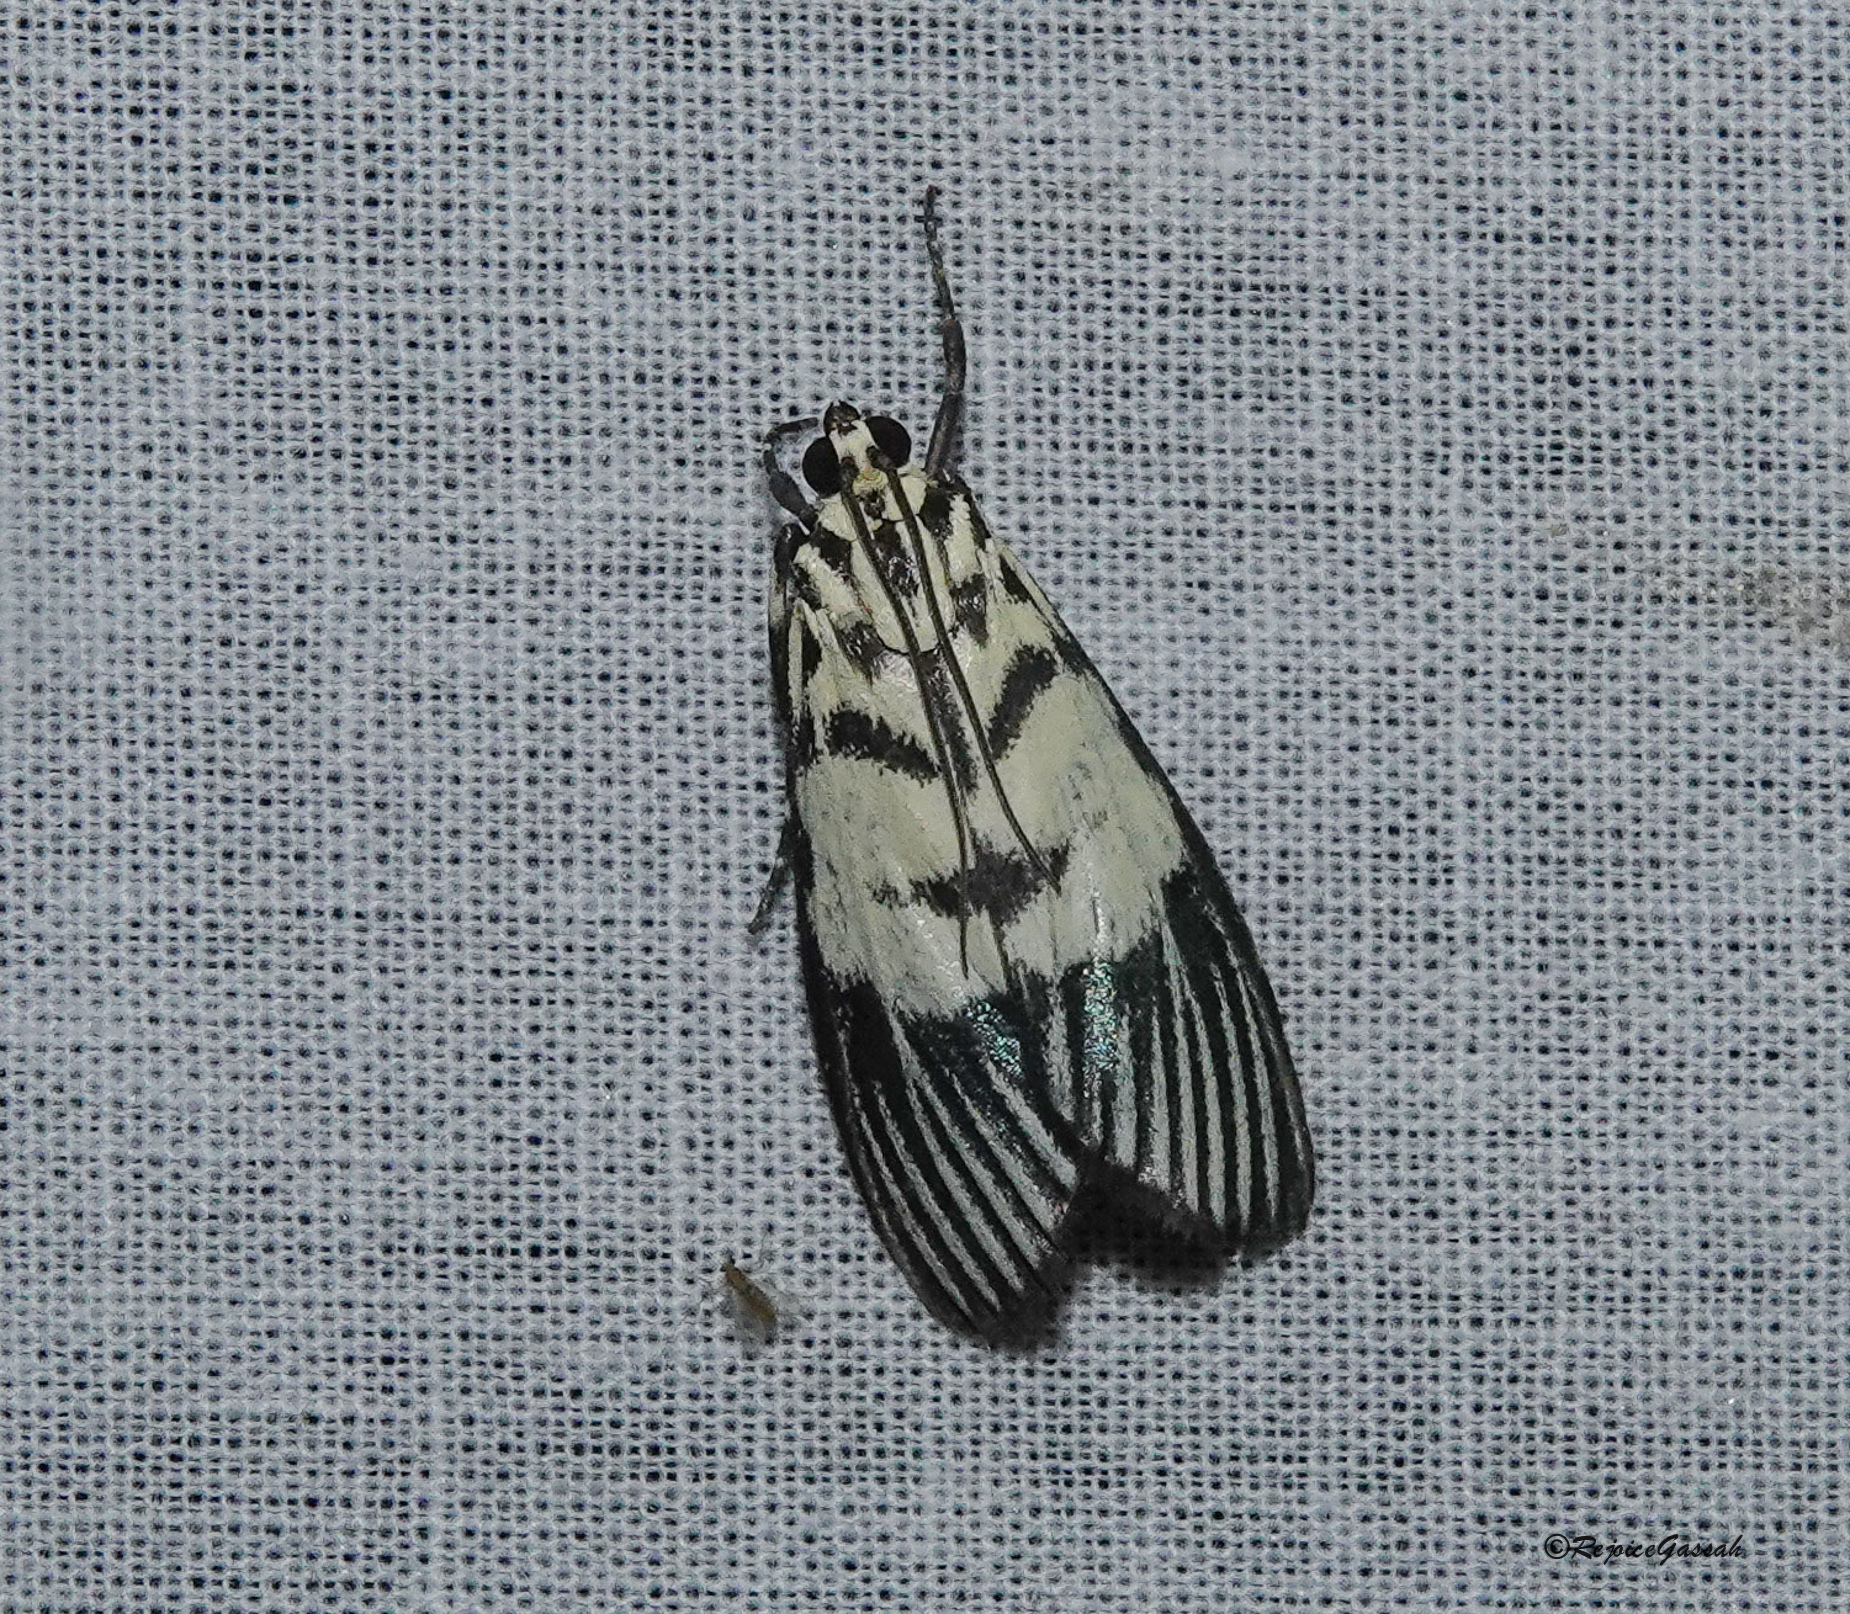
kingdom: Animalia
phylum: Arthropoda
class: Insecta
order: Lepidoptera
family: Crambidae
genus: Heortia
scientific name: Heortia vitessoides
